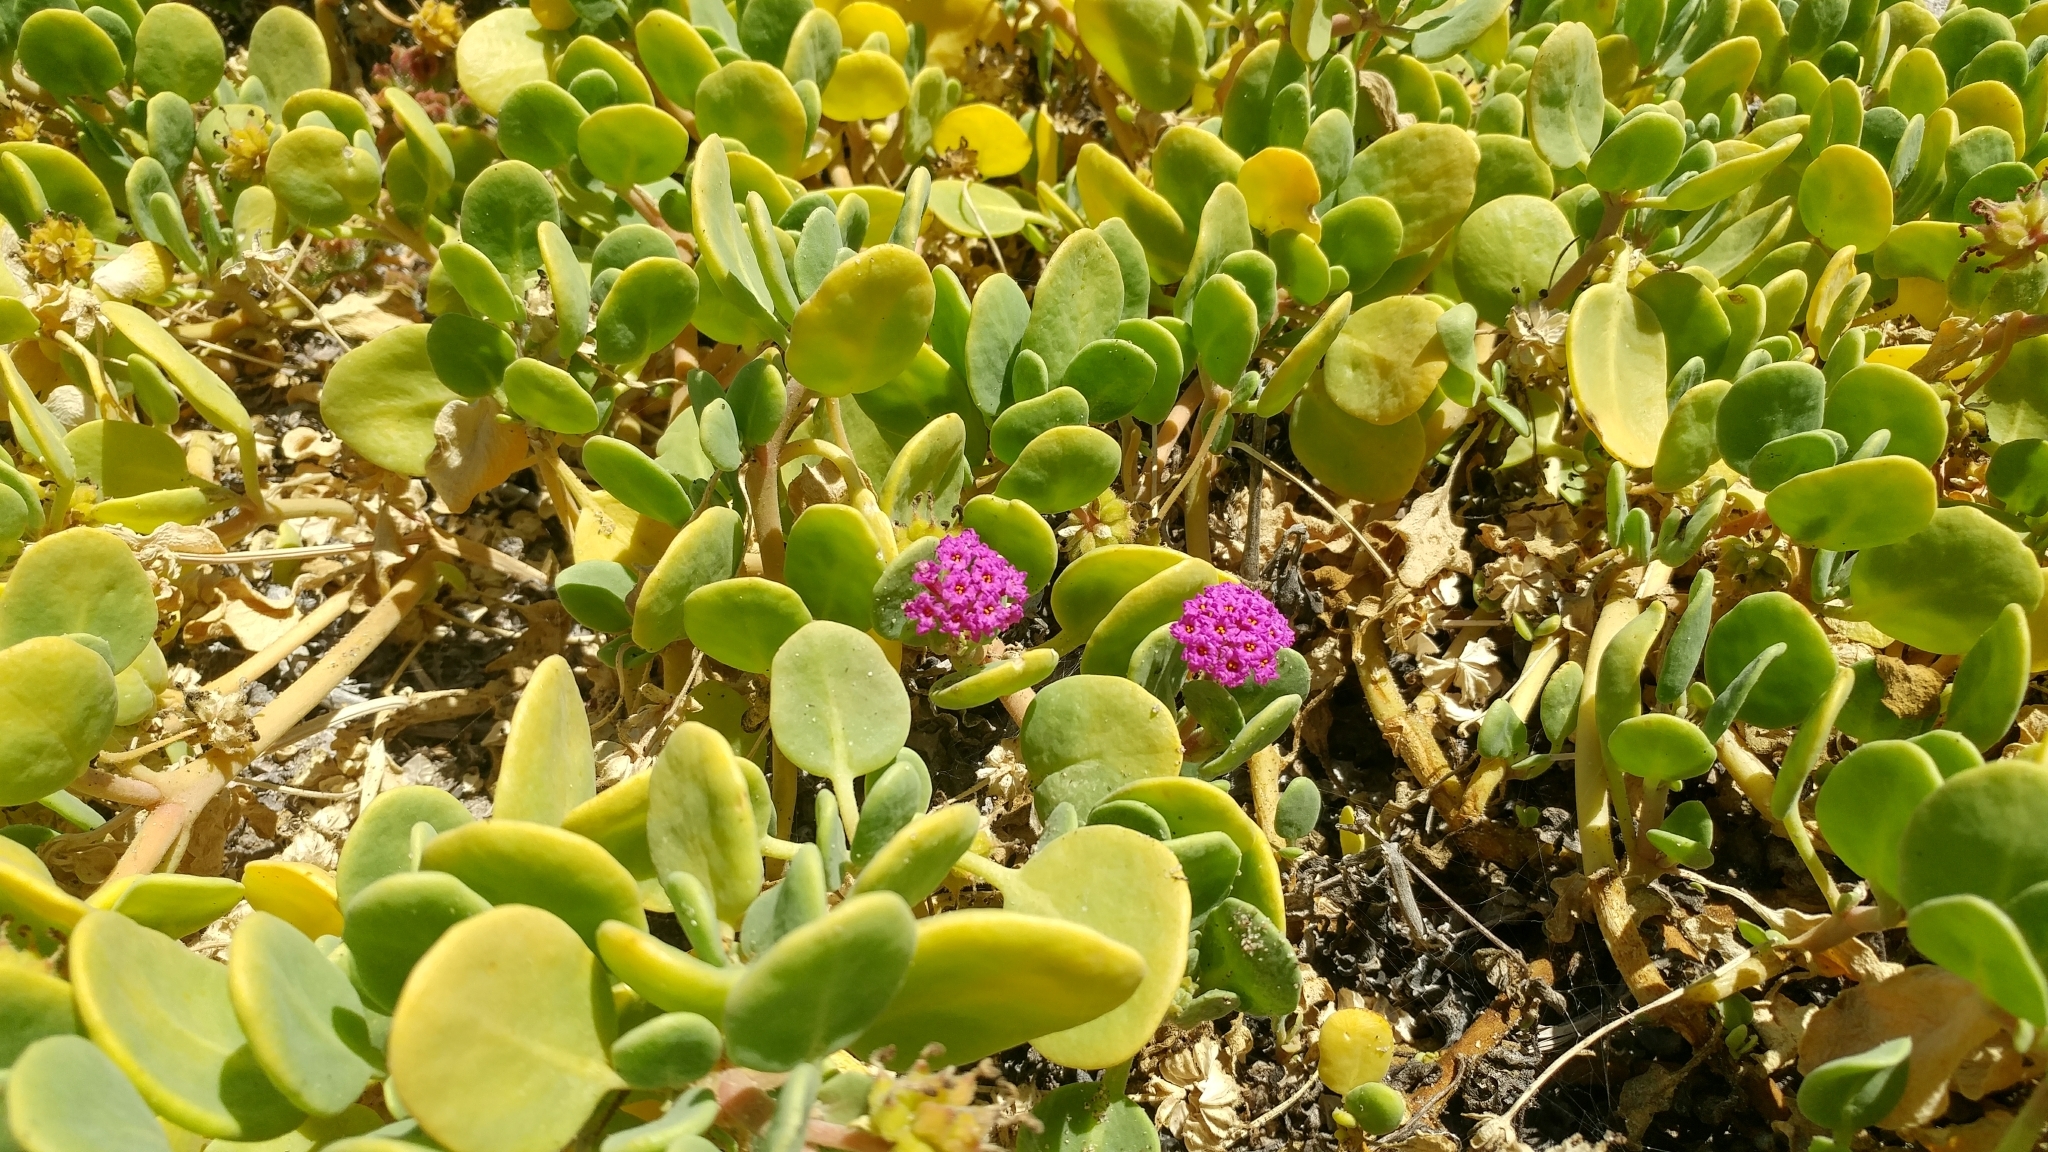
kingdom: Plantae
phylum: Tracheophyta
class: Magnoliopsida
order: Caryophyllales
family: Nyctaginaceae
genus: Abronia
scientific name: Abronia maritima
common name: Red sand-verbena
